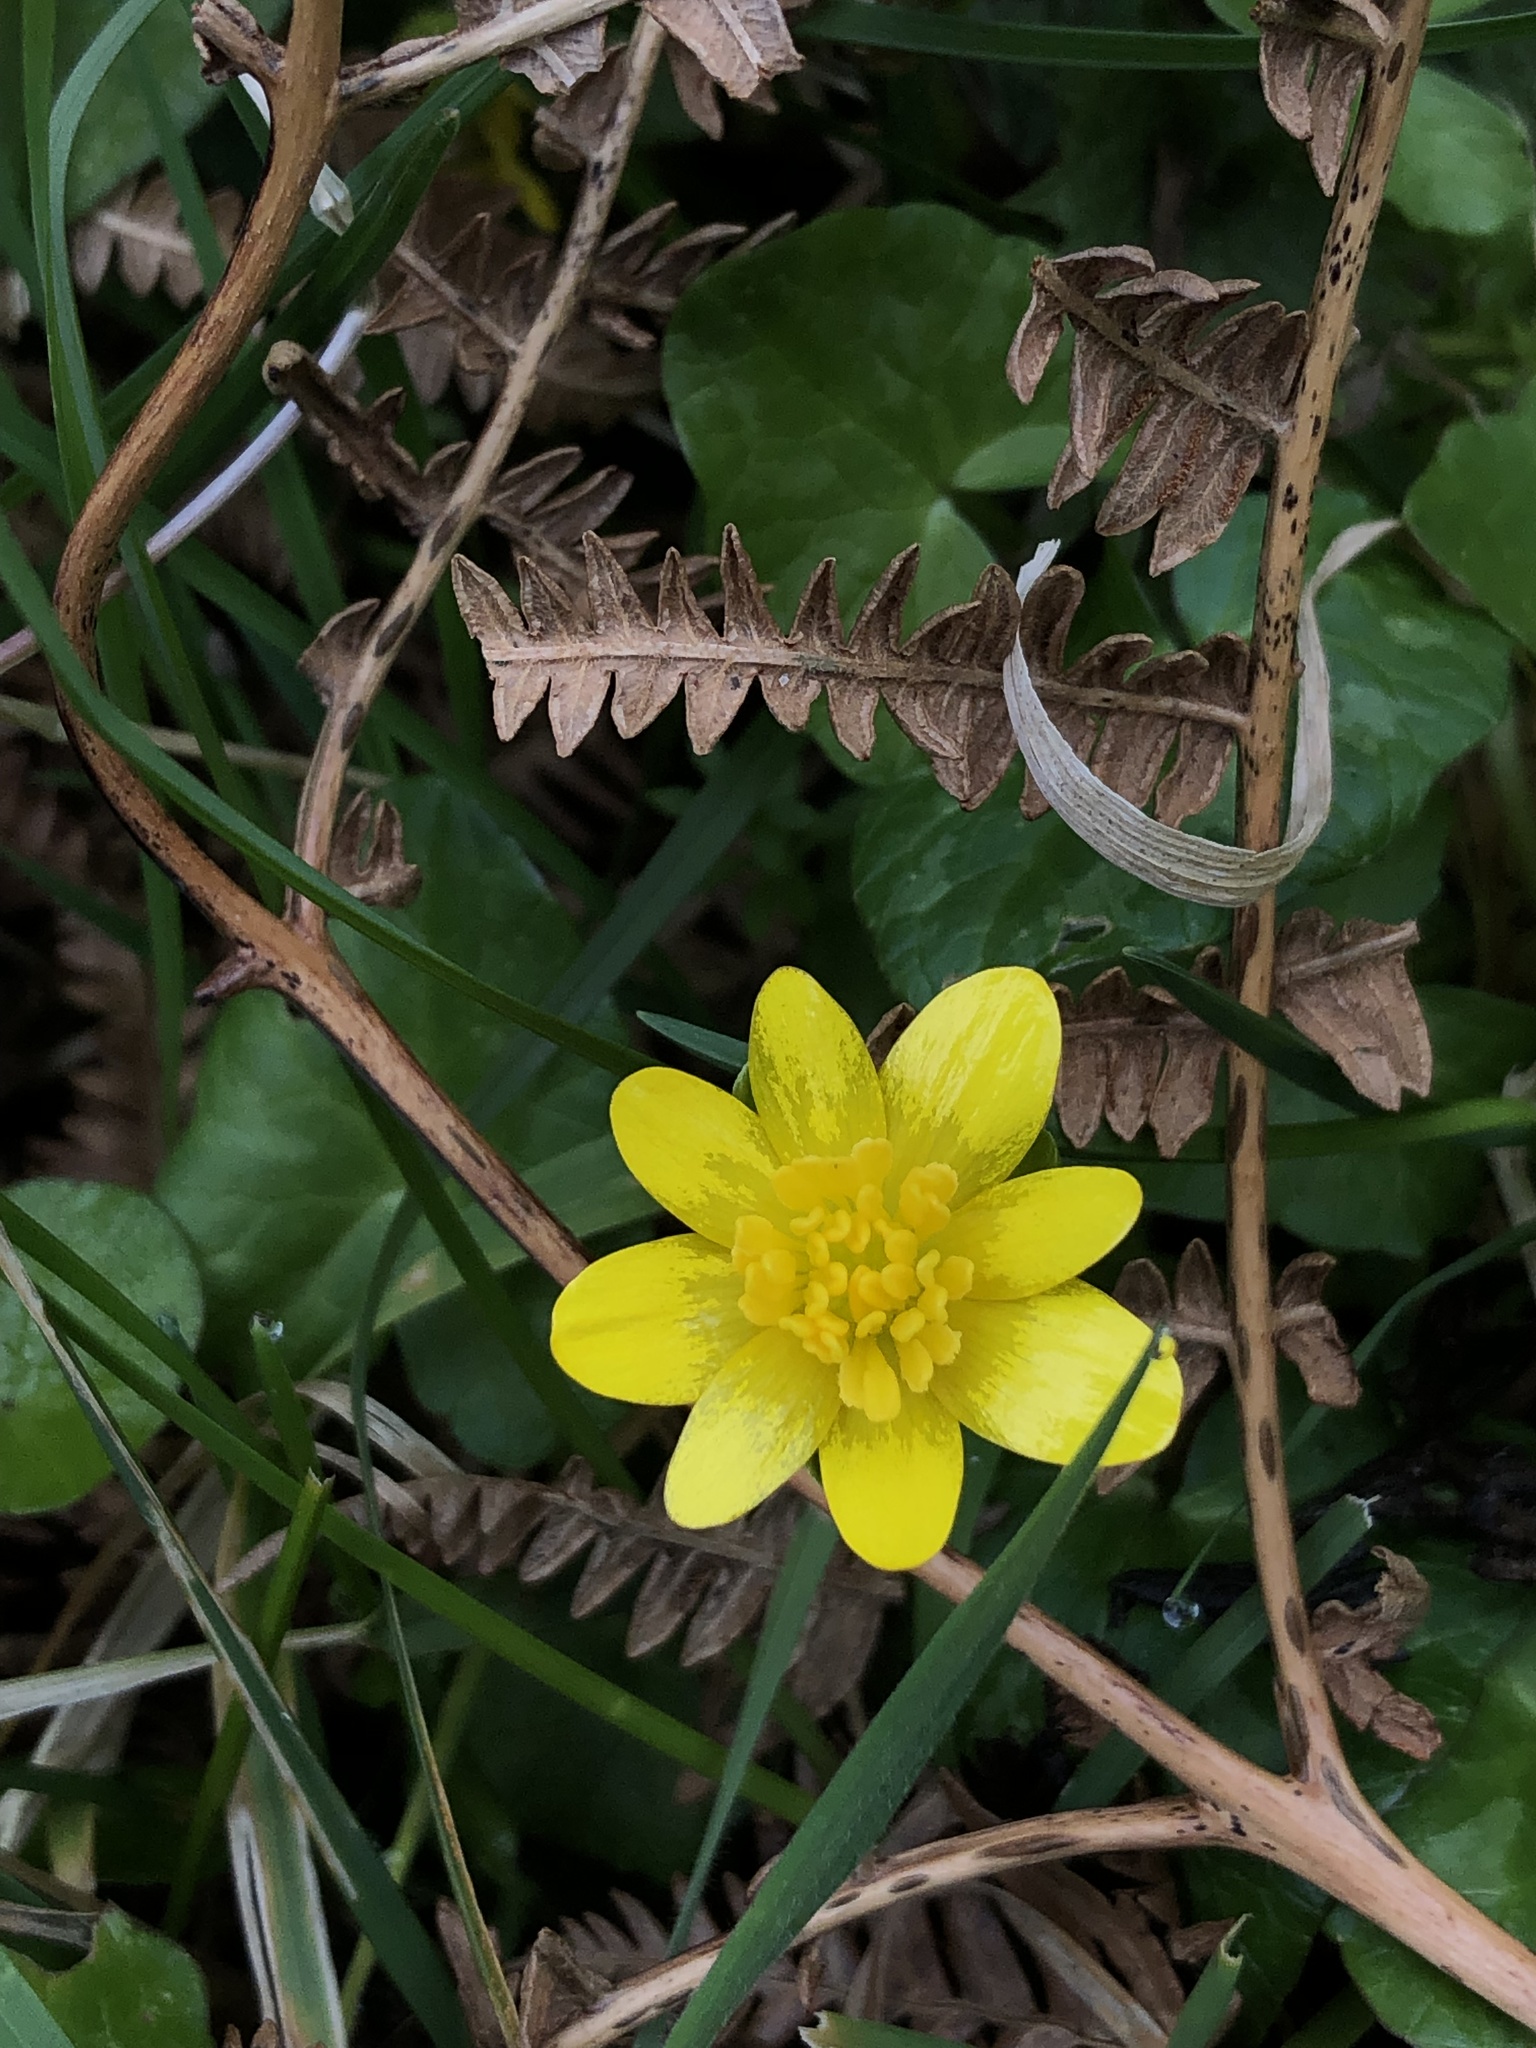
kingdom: Plantae
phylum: Tracheophyta
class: Magnoliopsida
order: Ranunculales
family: Ranunculaceae
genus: Ficaria
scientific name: Ficaria verna
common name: Lesser celandine
